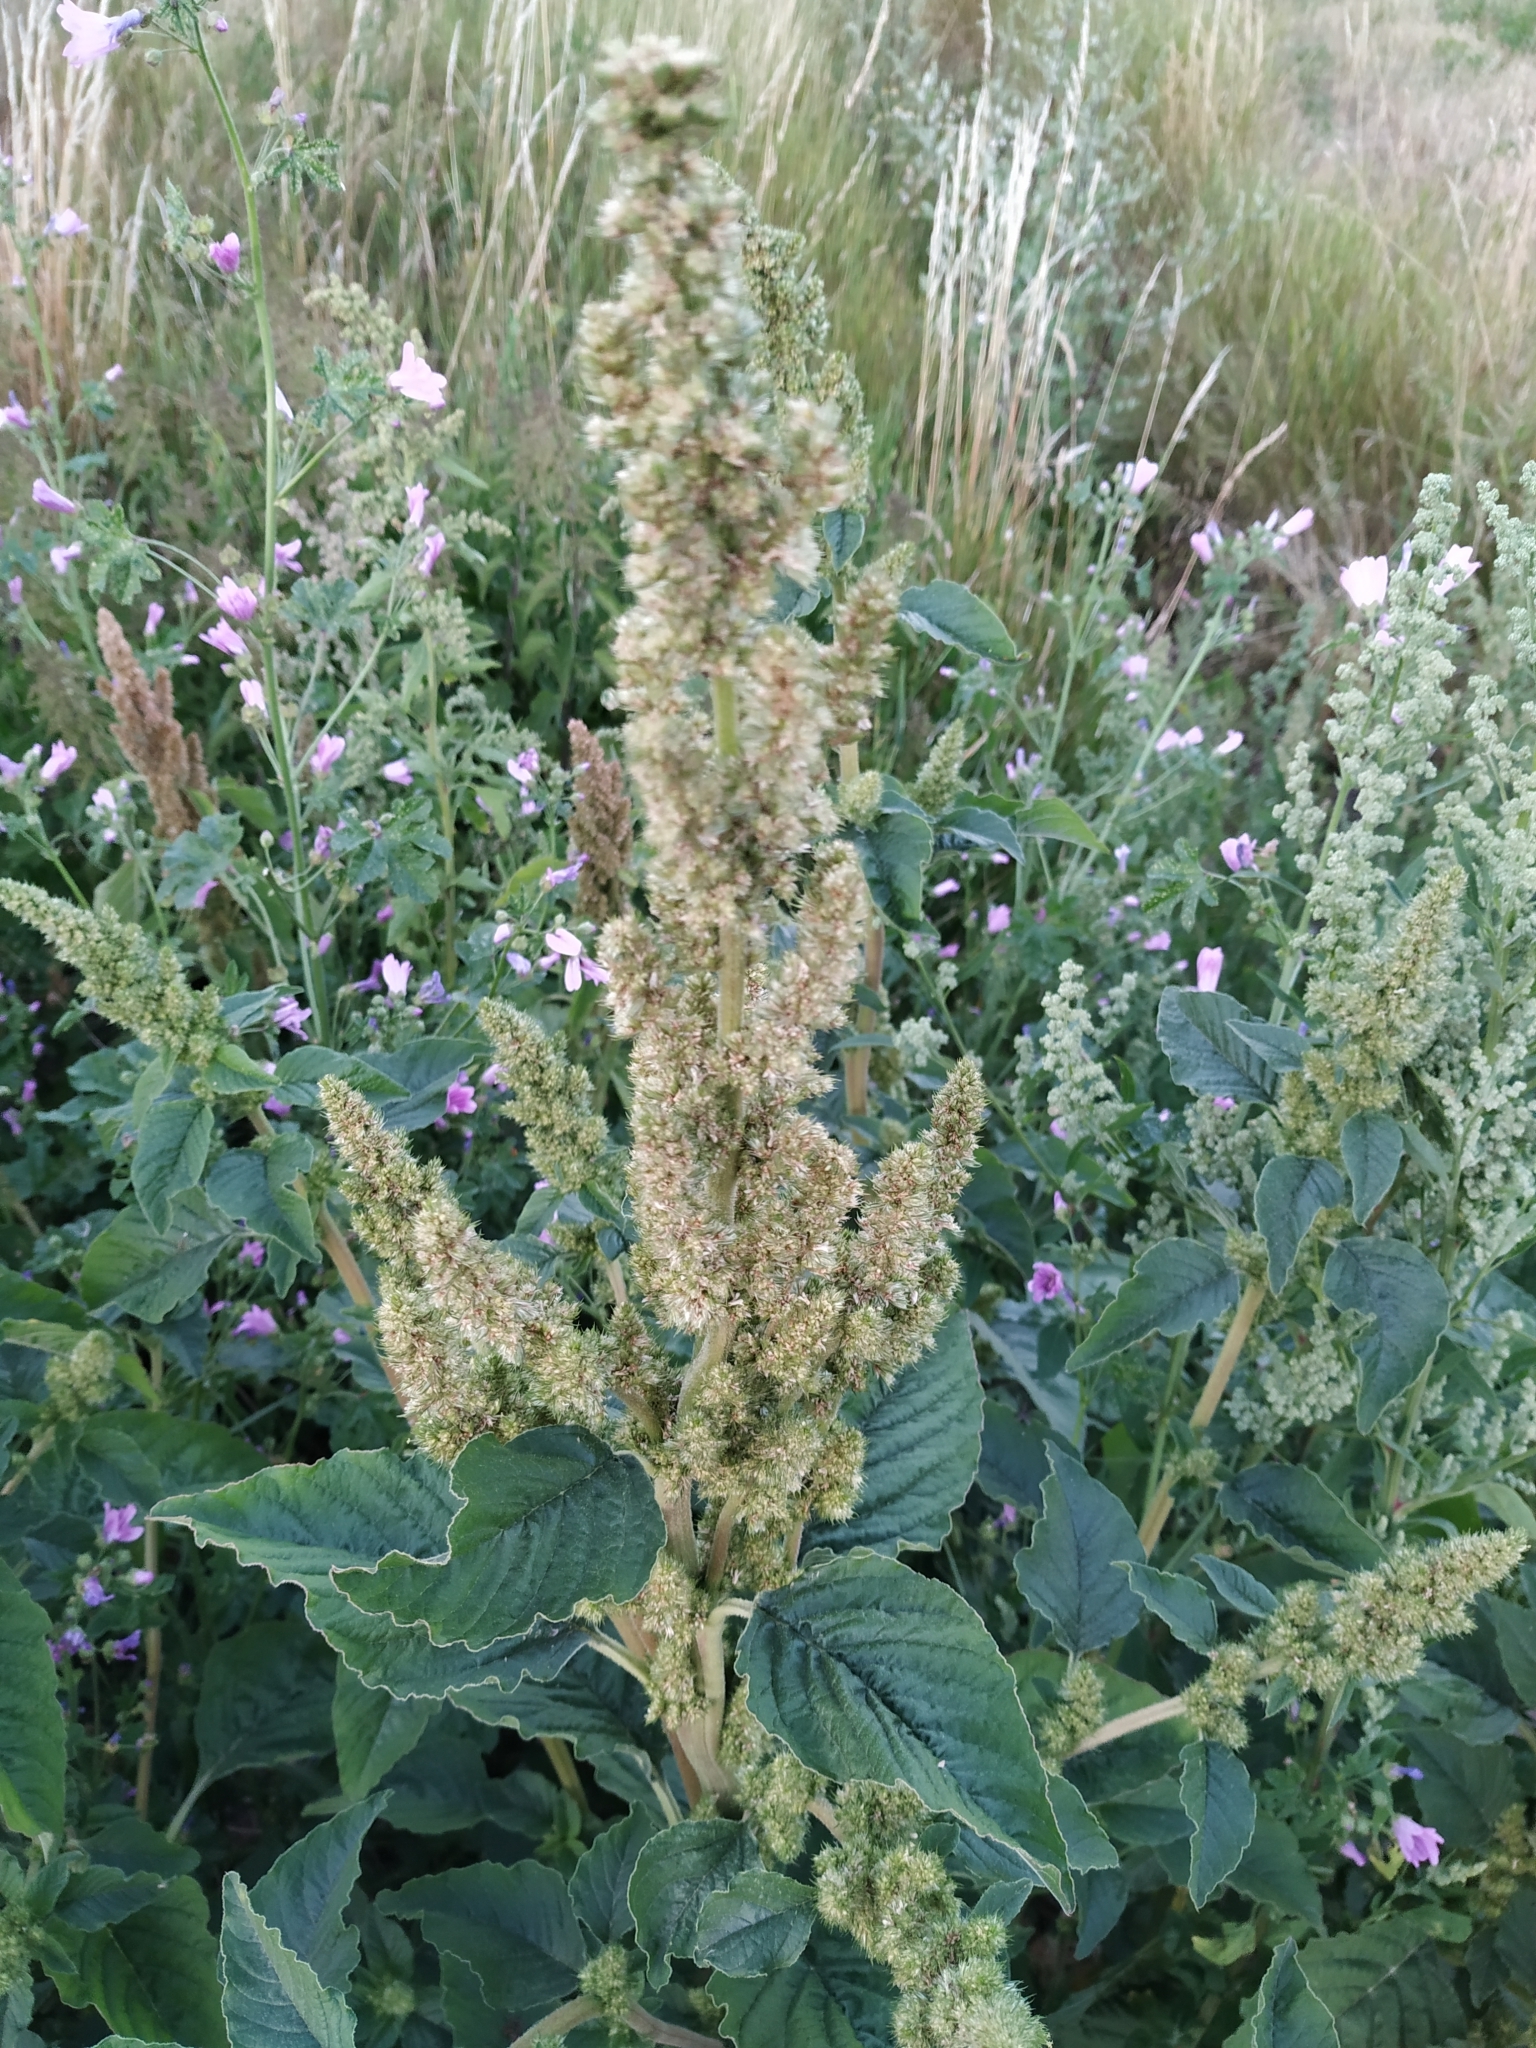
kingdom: Plantae
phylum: Tracheophyta
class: Magnoliopsida
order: Caryophyllales
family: Amaranthaceae
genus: Amaranthus
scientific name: Amaranthus retroflexus
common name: Redroot amaranth
